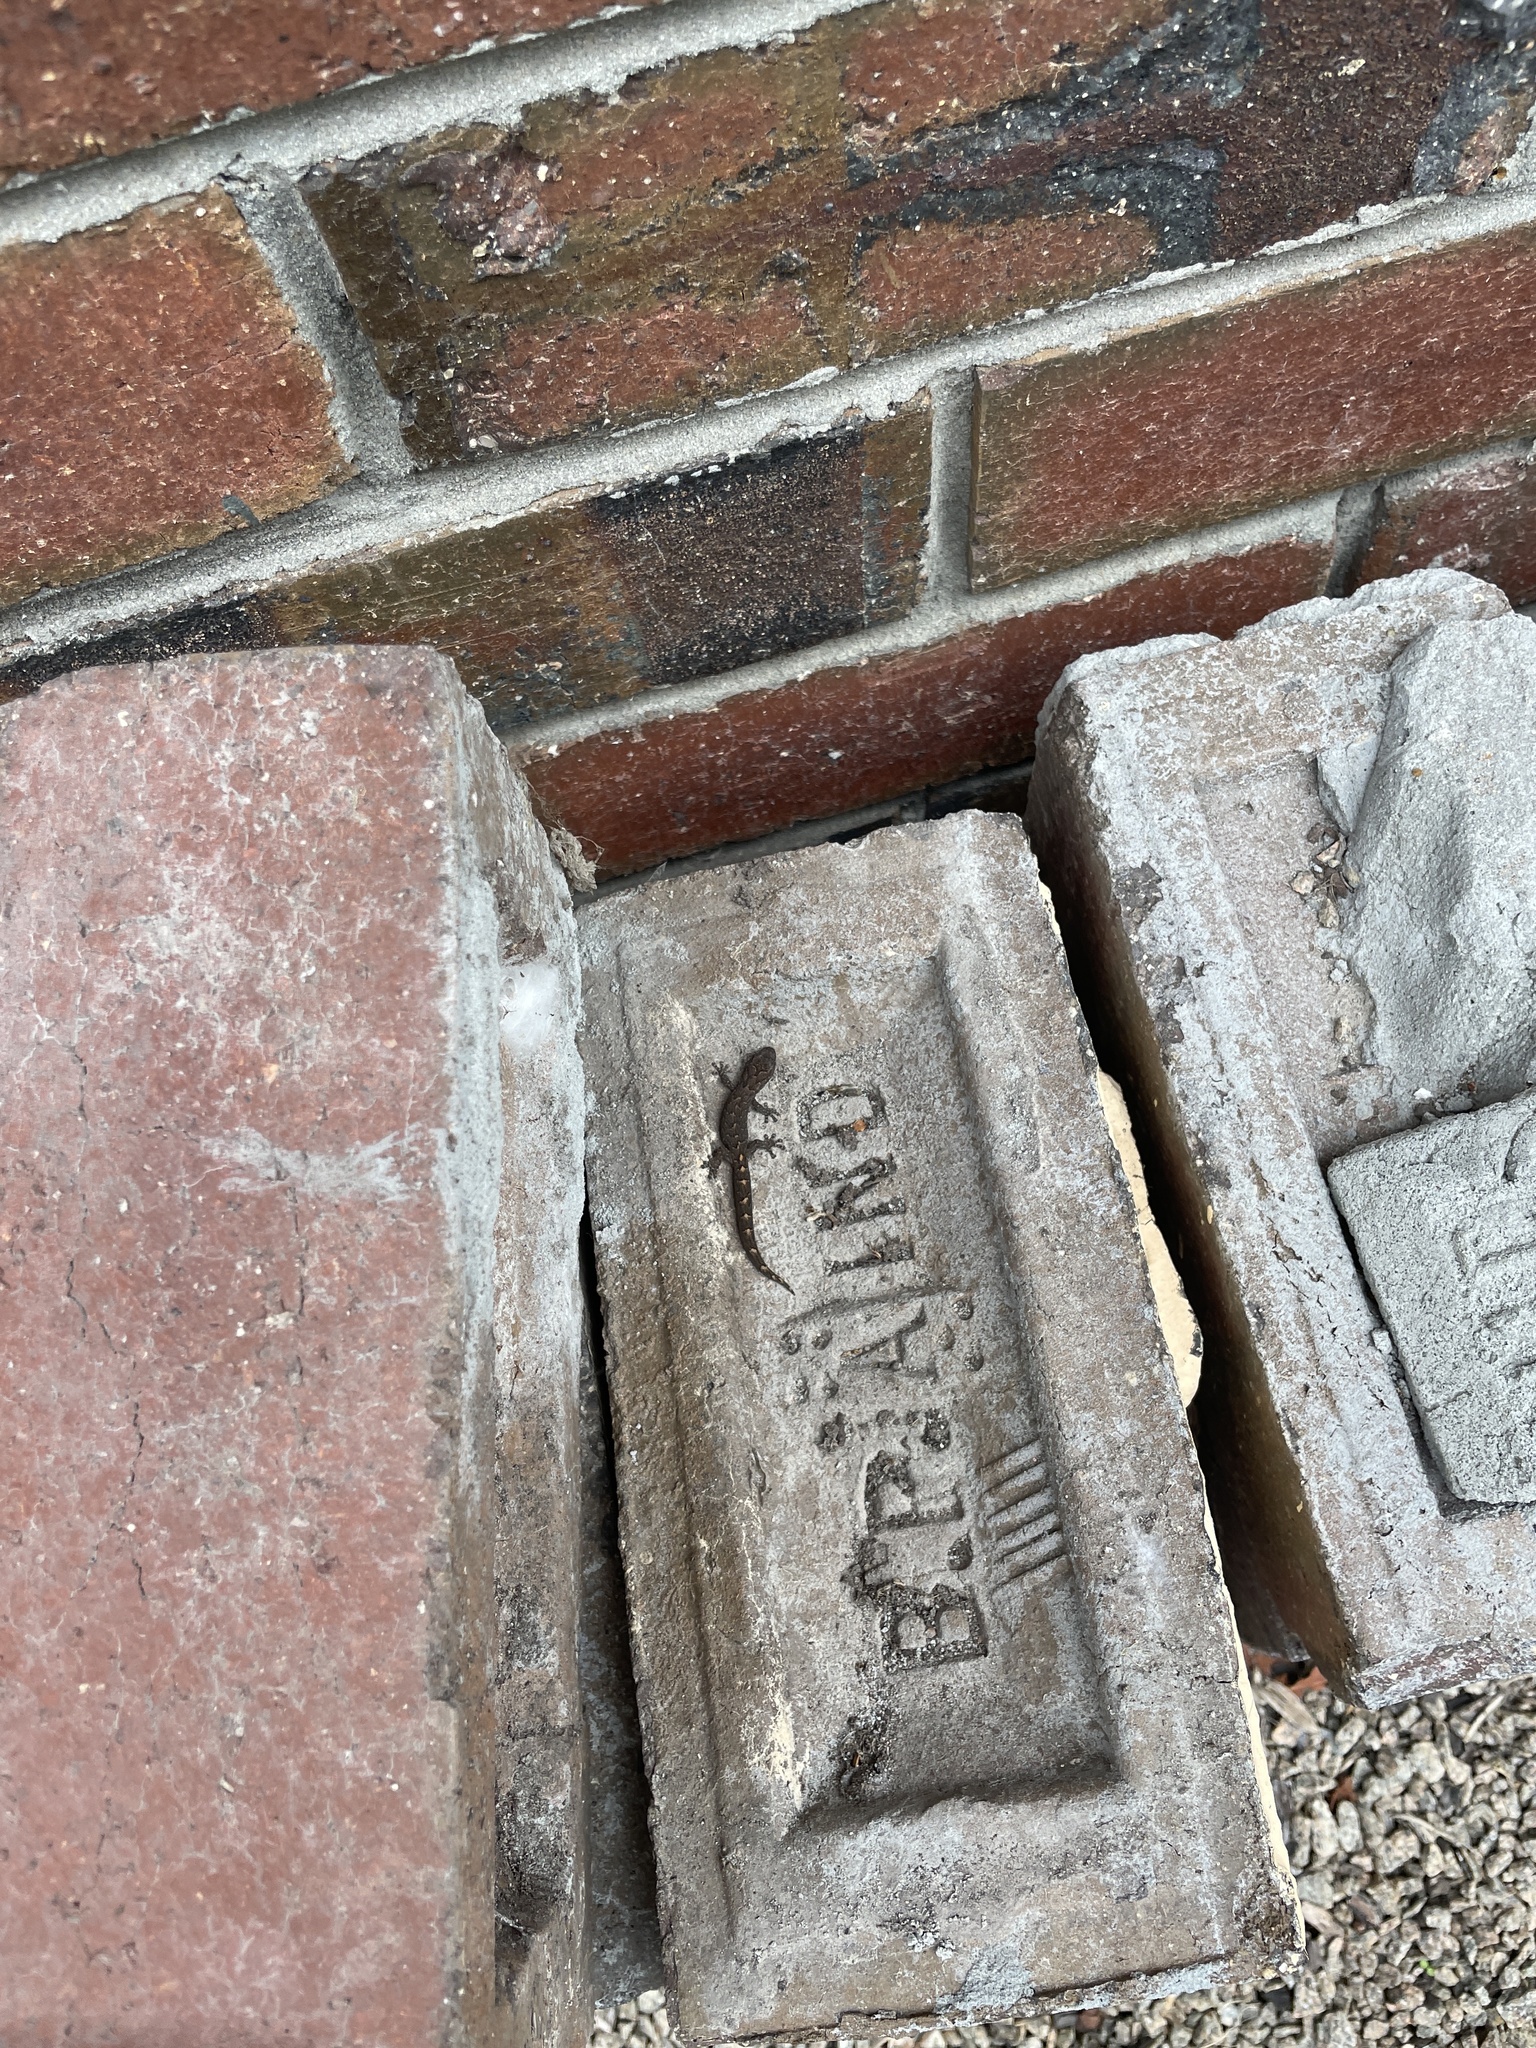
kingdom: Animalia
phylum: Chordata
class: Squamata
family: Gekkonidae
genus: Christinus
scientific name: Christinus marmoratus
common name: Marbled gecko
